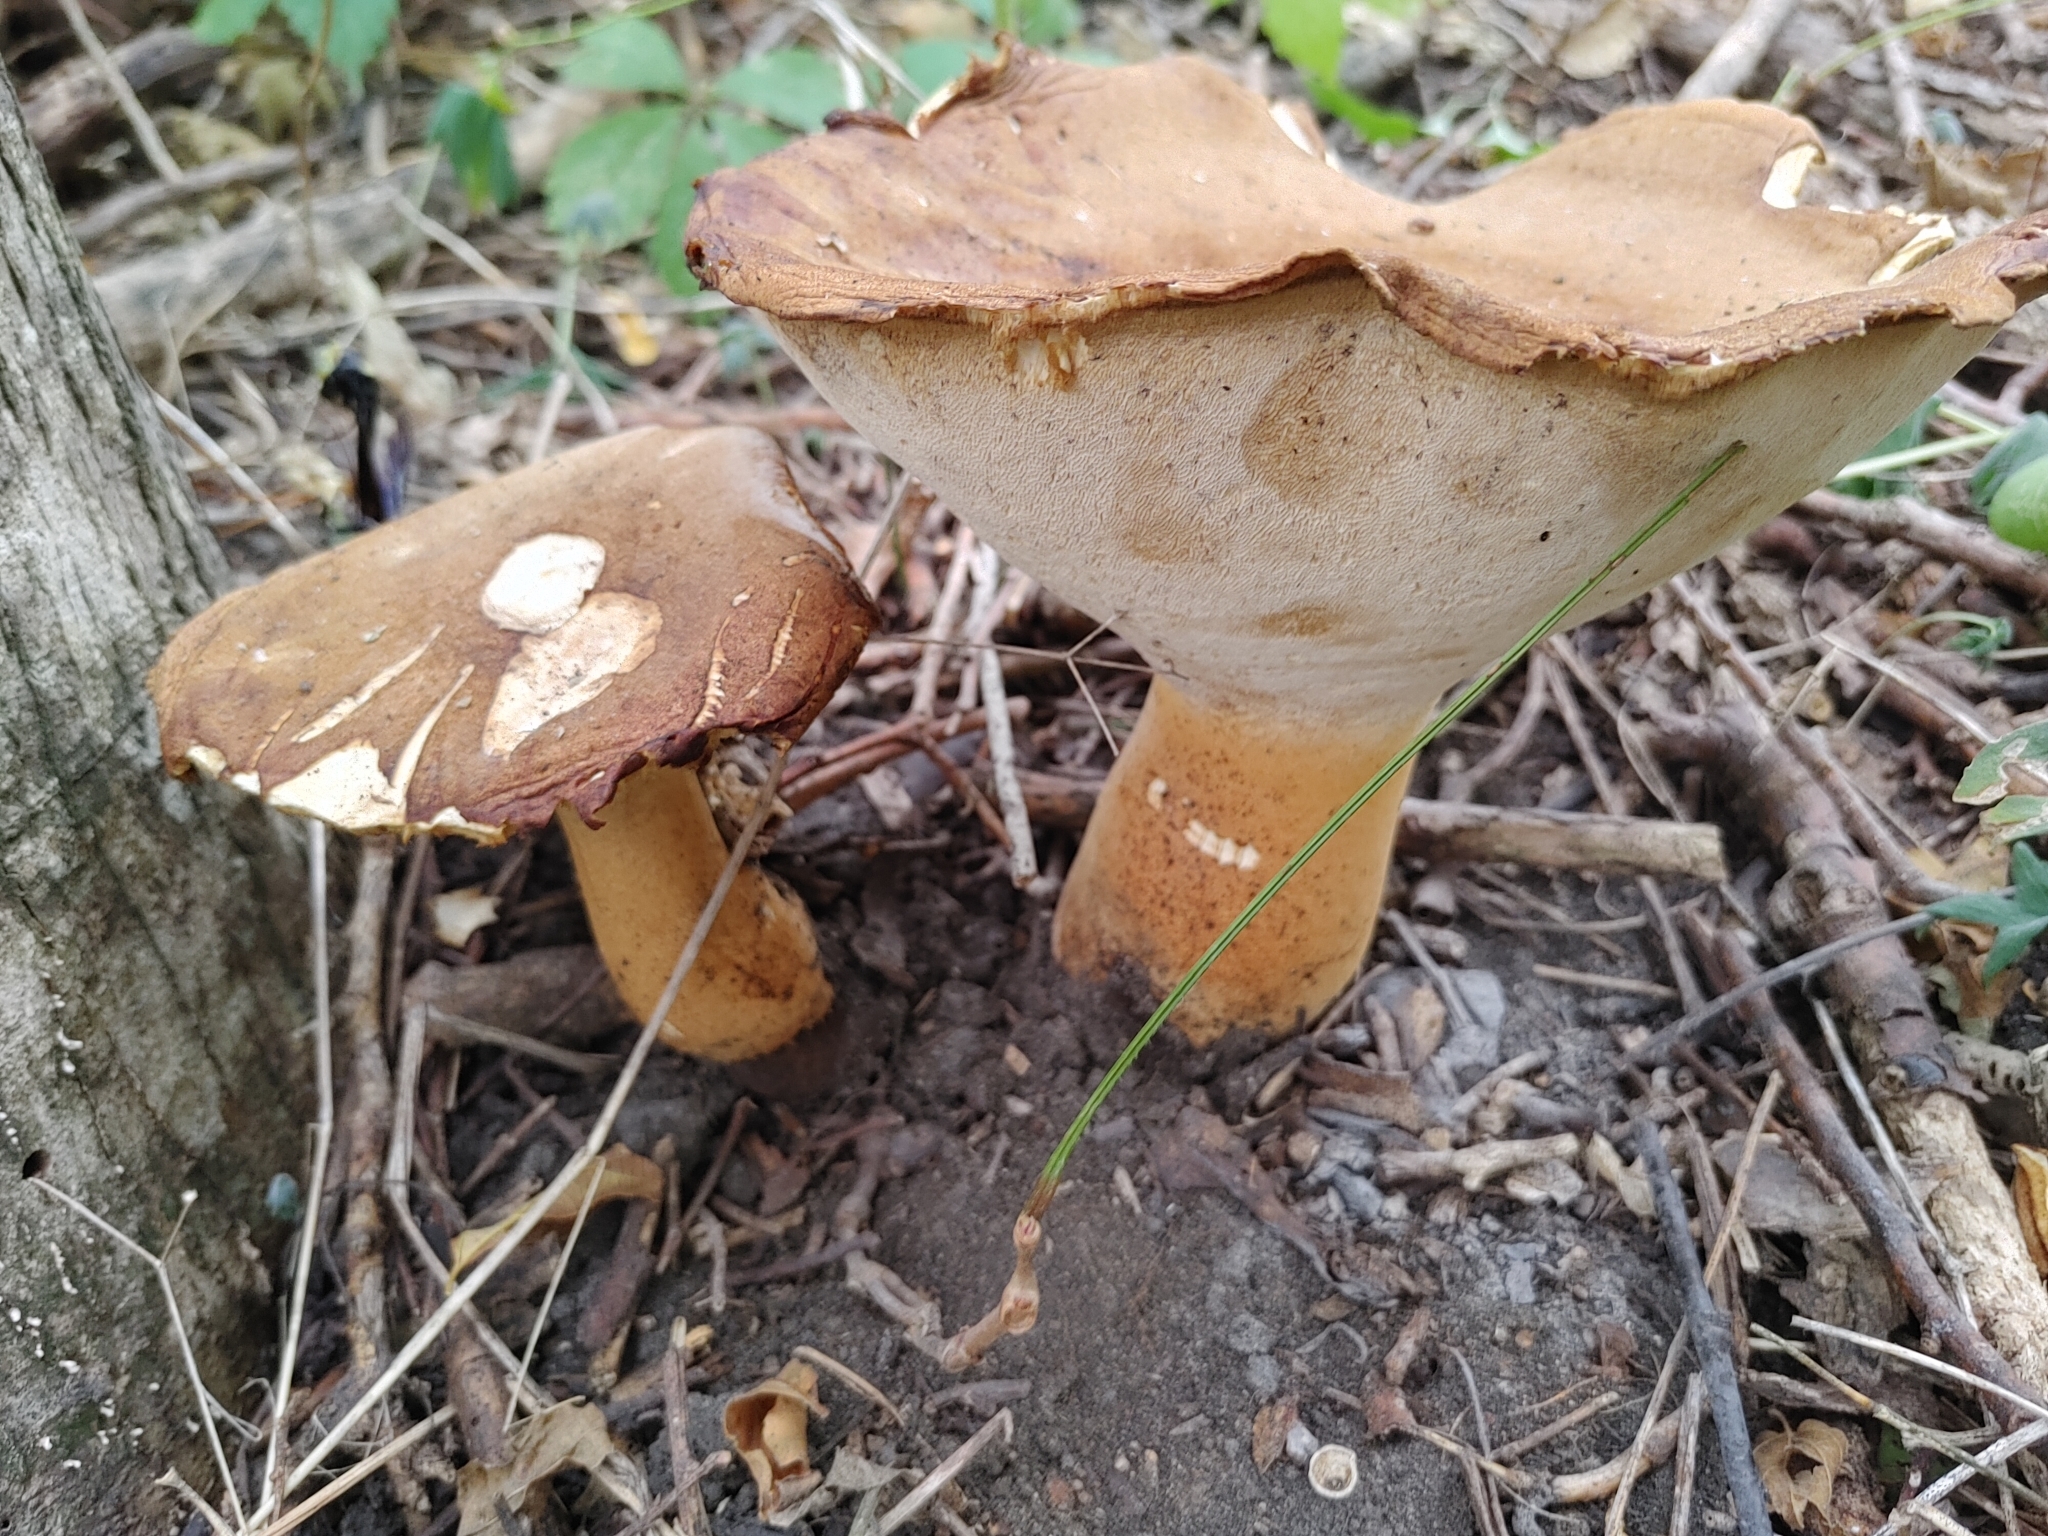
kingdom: Fungi
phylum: Basidiomycota
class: Agaricomycetes
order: Polyporales
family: Polyporaceae
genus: Polyporus
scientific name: Polyporus radicatus
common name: Rooting polypore
